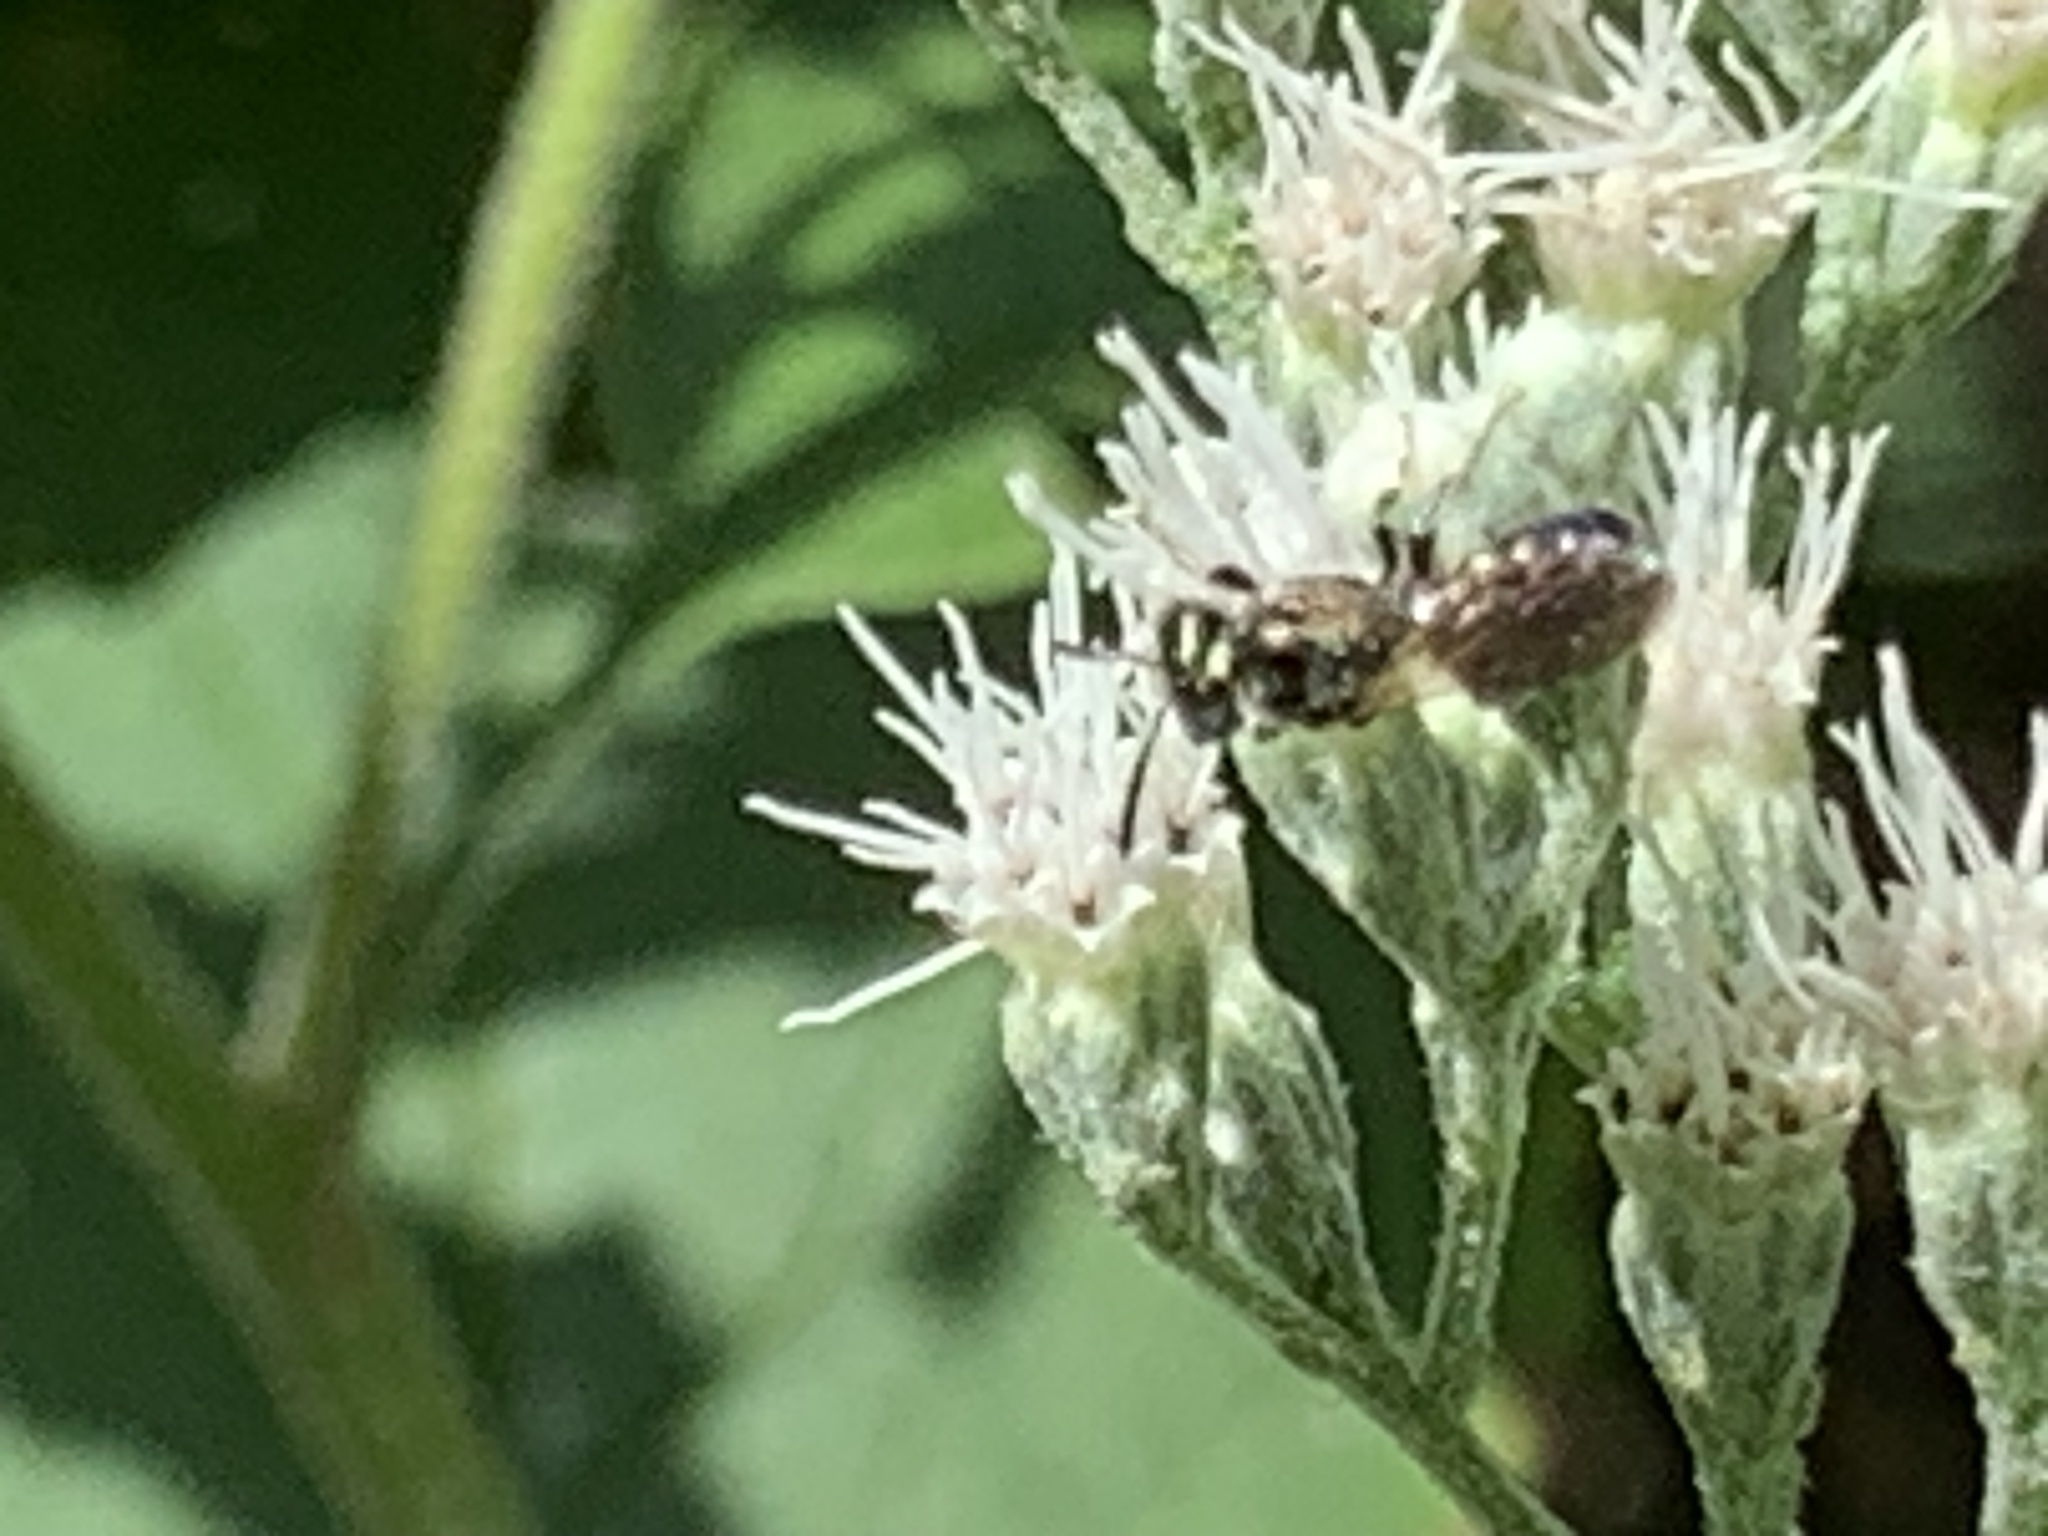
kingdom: Animalia
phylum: Arthropoda
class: Insecta
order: Hymenoptera
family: Apidae
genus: Zadontomerus
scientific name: Zadontomerus
